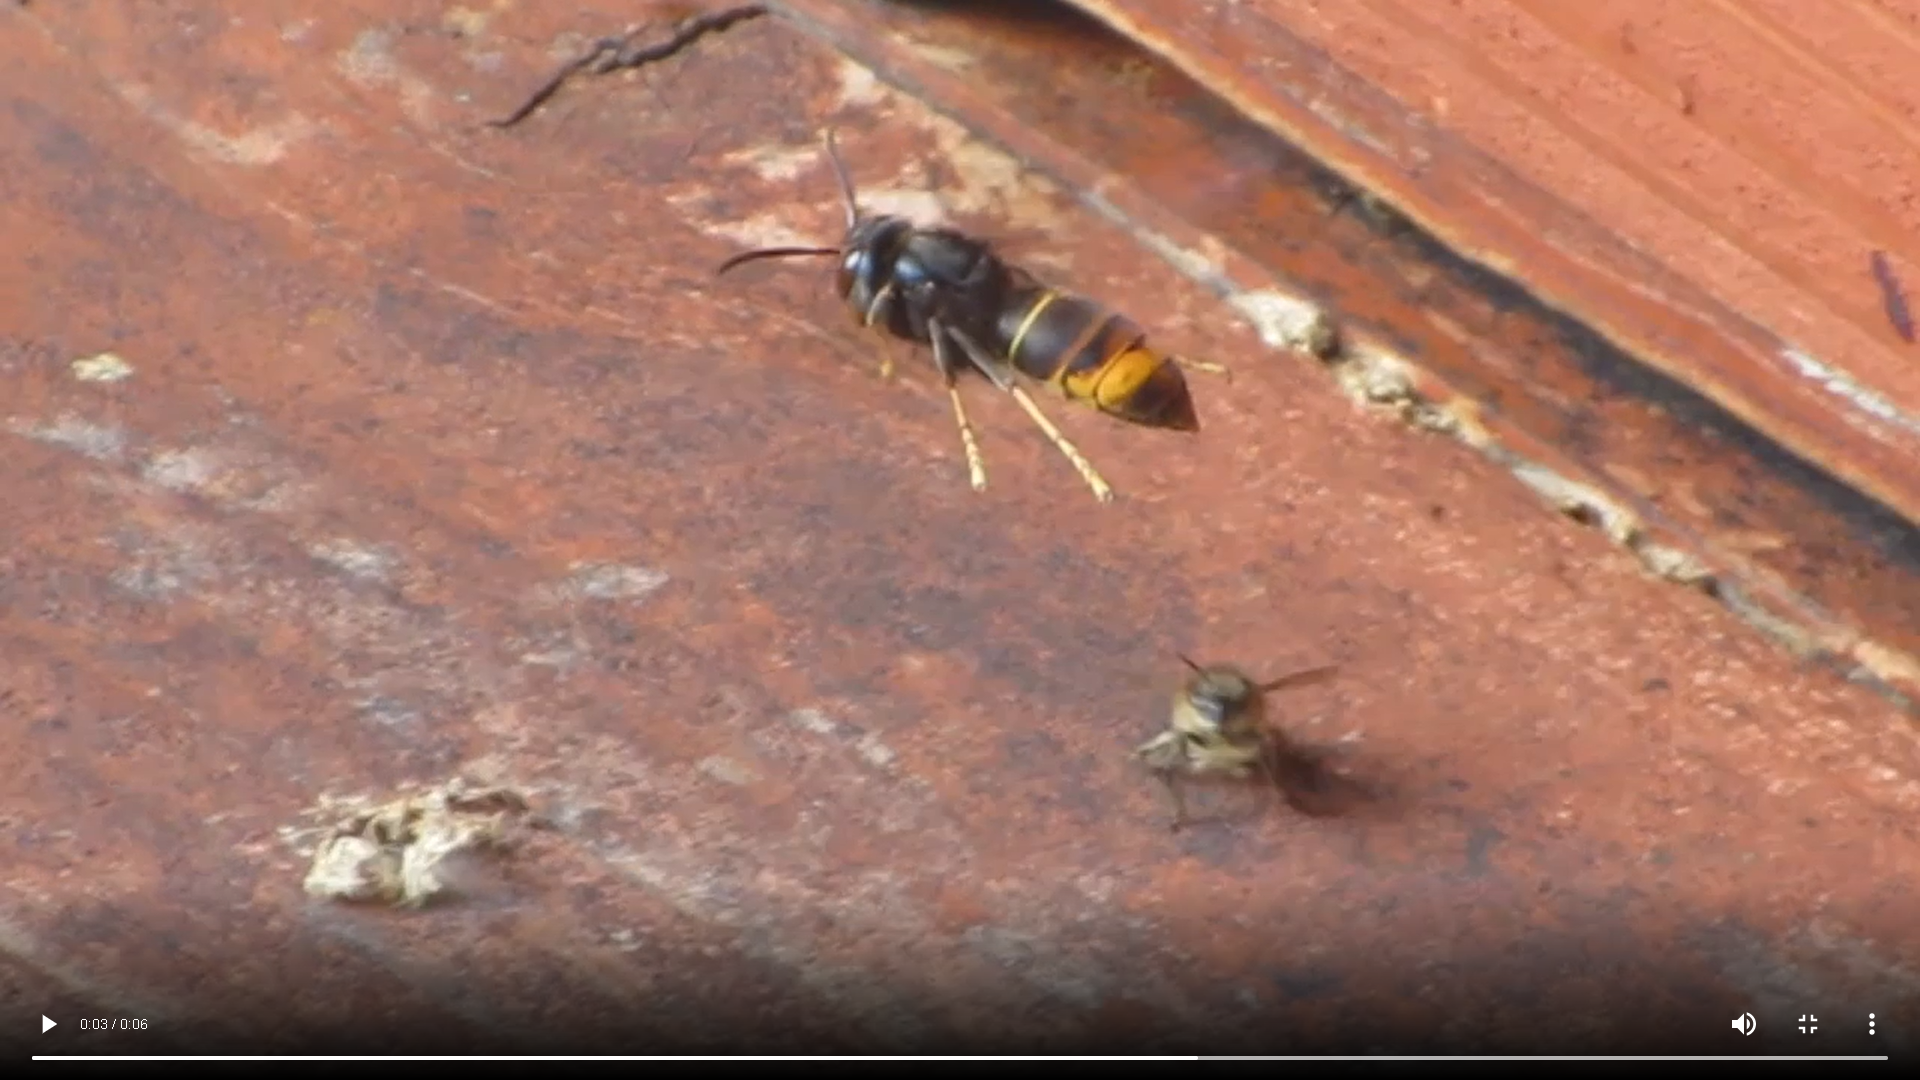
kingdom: Animalia
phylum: Arthropoda
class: Insecta
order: Hymenoptera
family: Vespidae
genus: Vespa
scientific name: Vespa velutina
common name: Asian hornet
